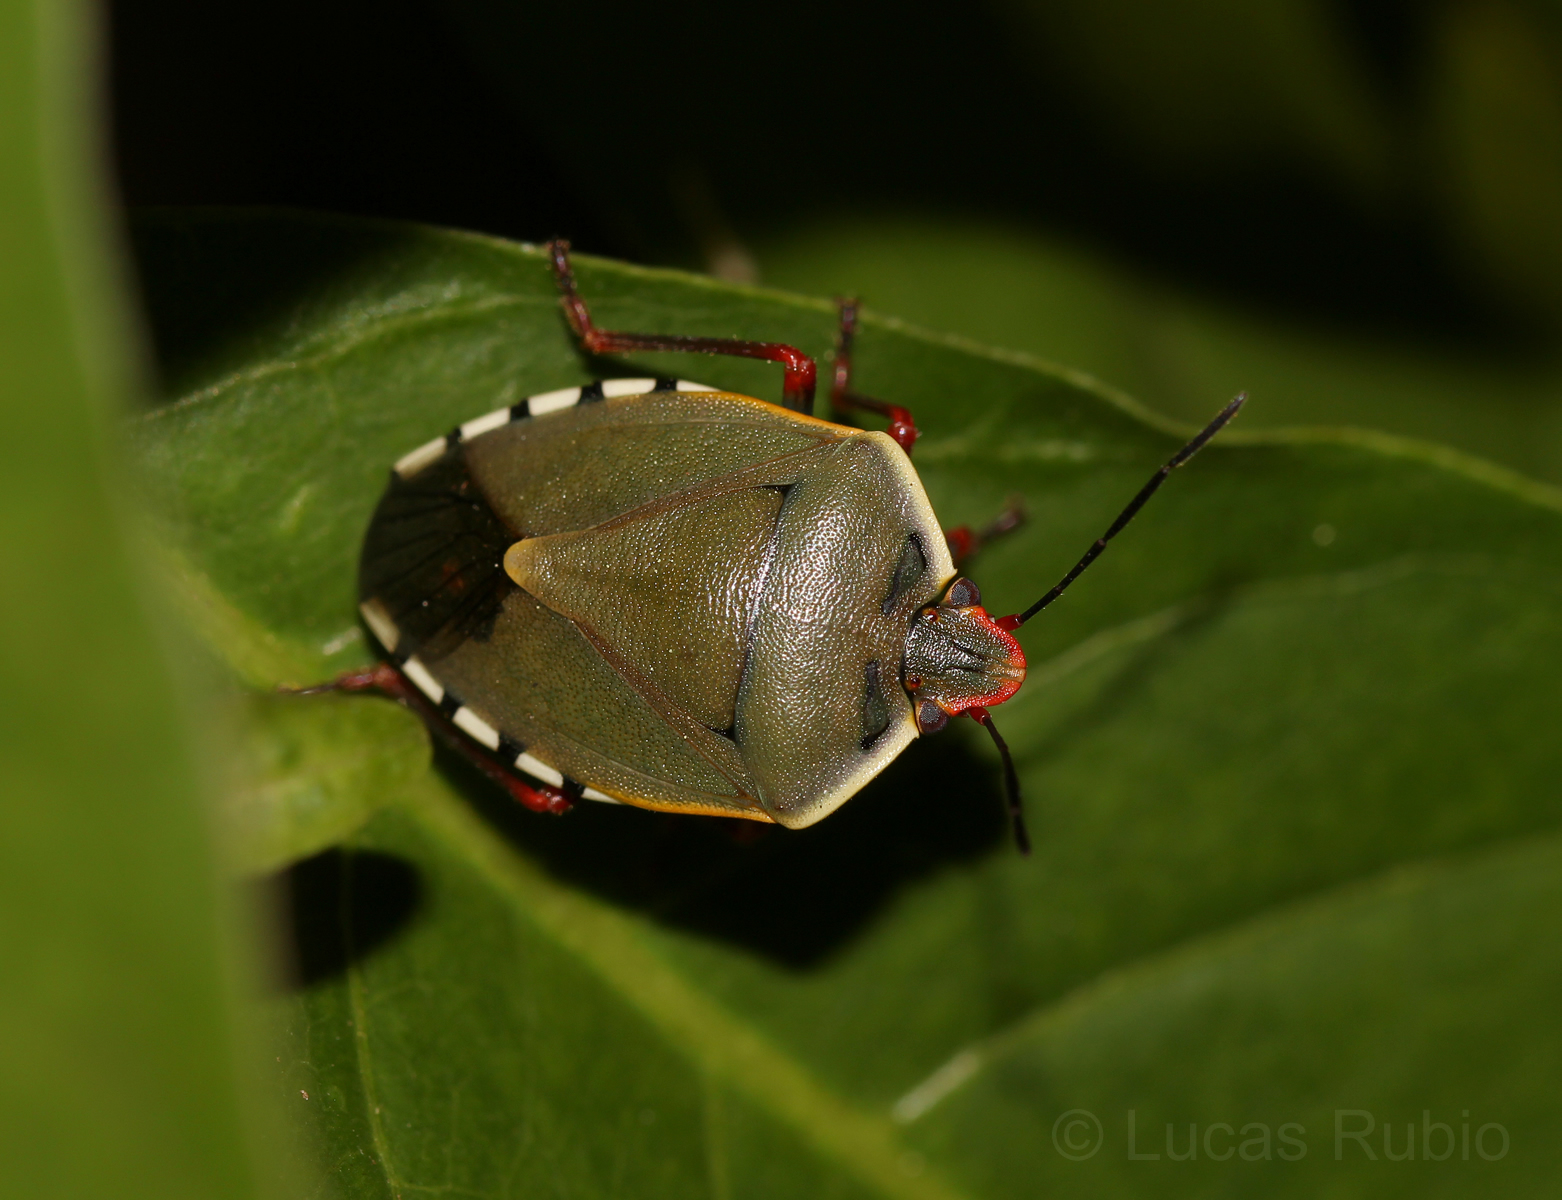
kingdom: Animalia
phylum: Arthropoda
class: Insecta
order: Hemiptera
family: Pentatomidae
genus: Chinavia
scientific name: Chinavia erythrocnemis
